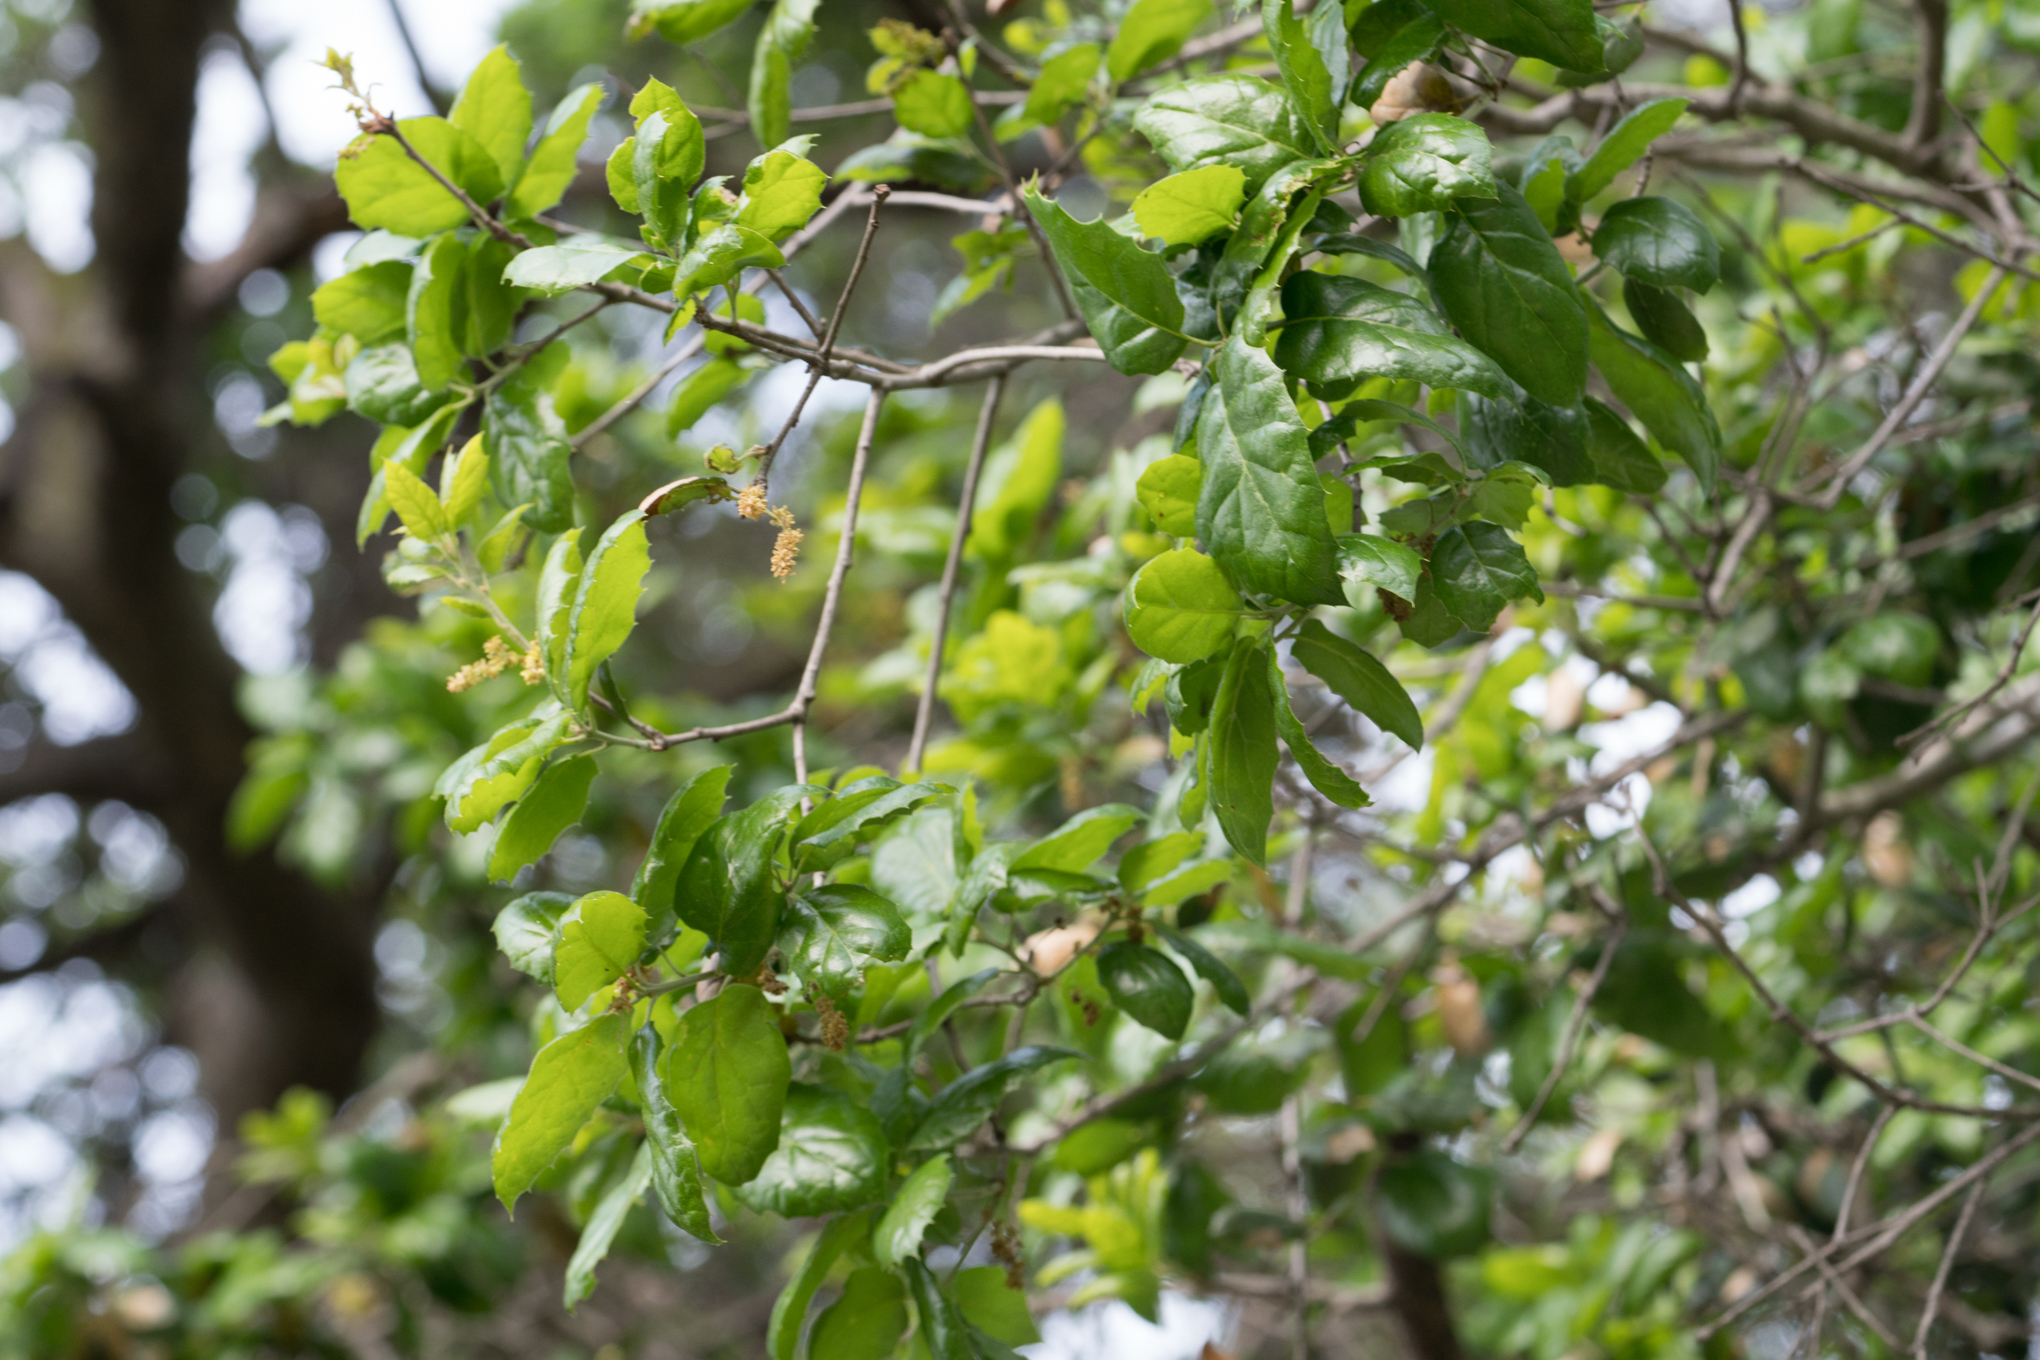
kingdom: Plantae
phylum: Tracheophyta
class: Magnoliopsida
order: Fagales
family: Fagaceae
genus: Quercus
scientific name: Quercus agrifolia
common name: California live oak
